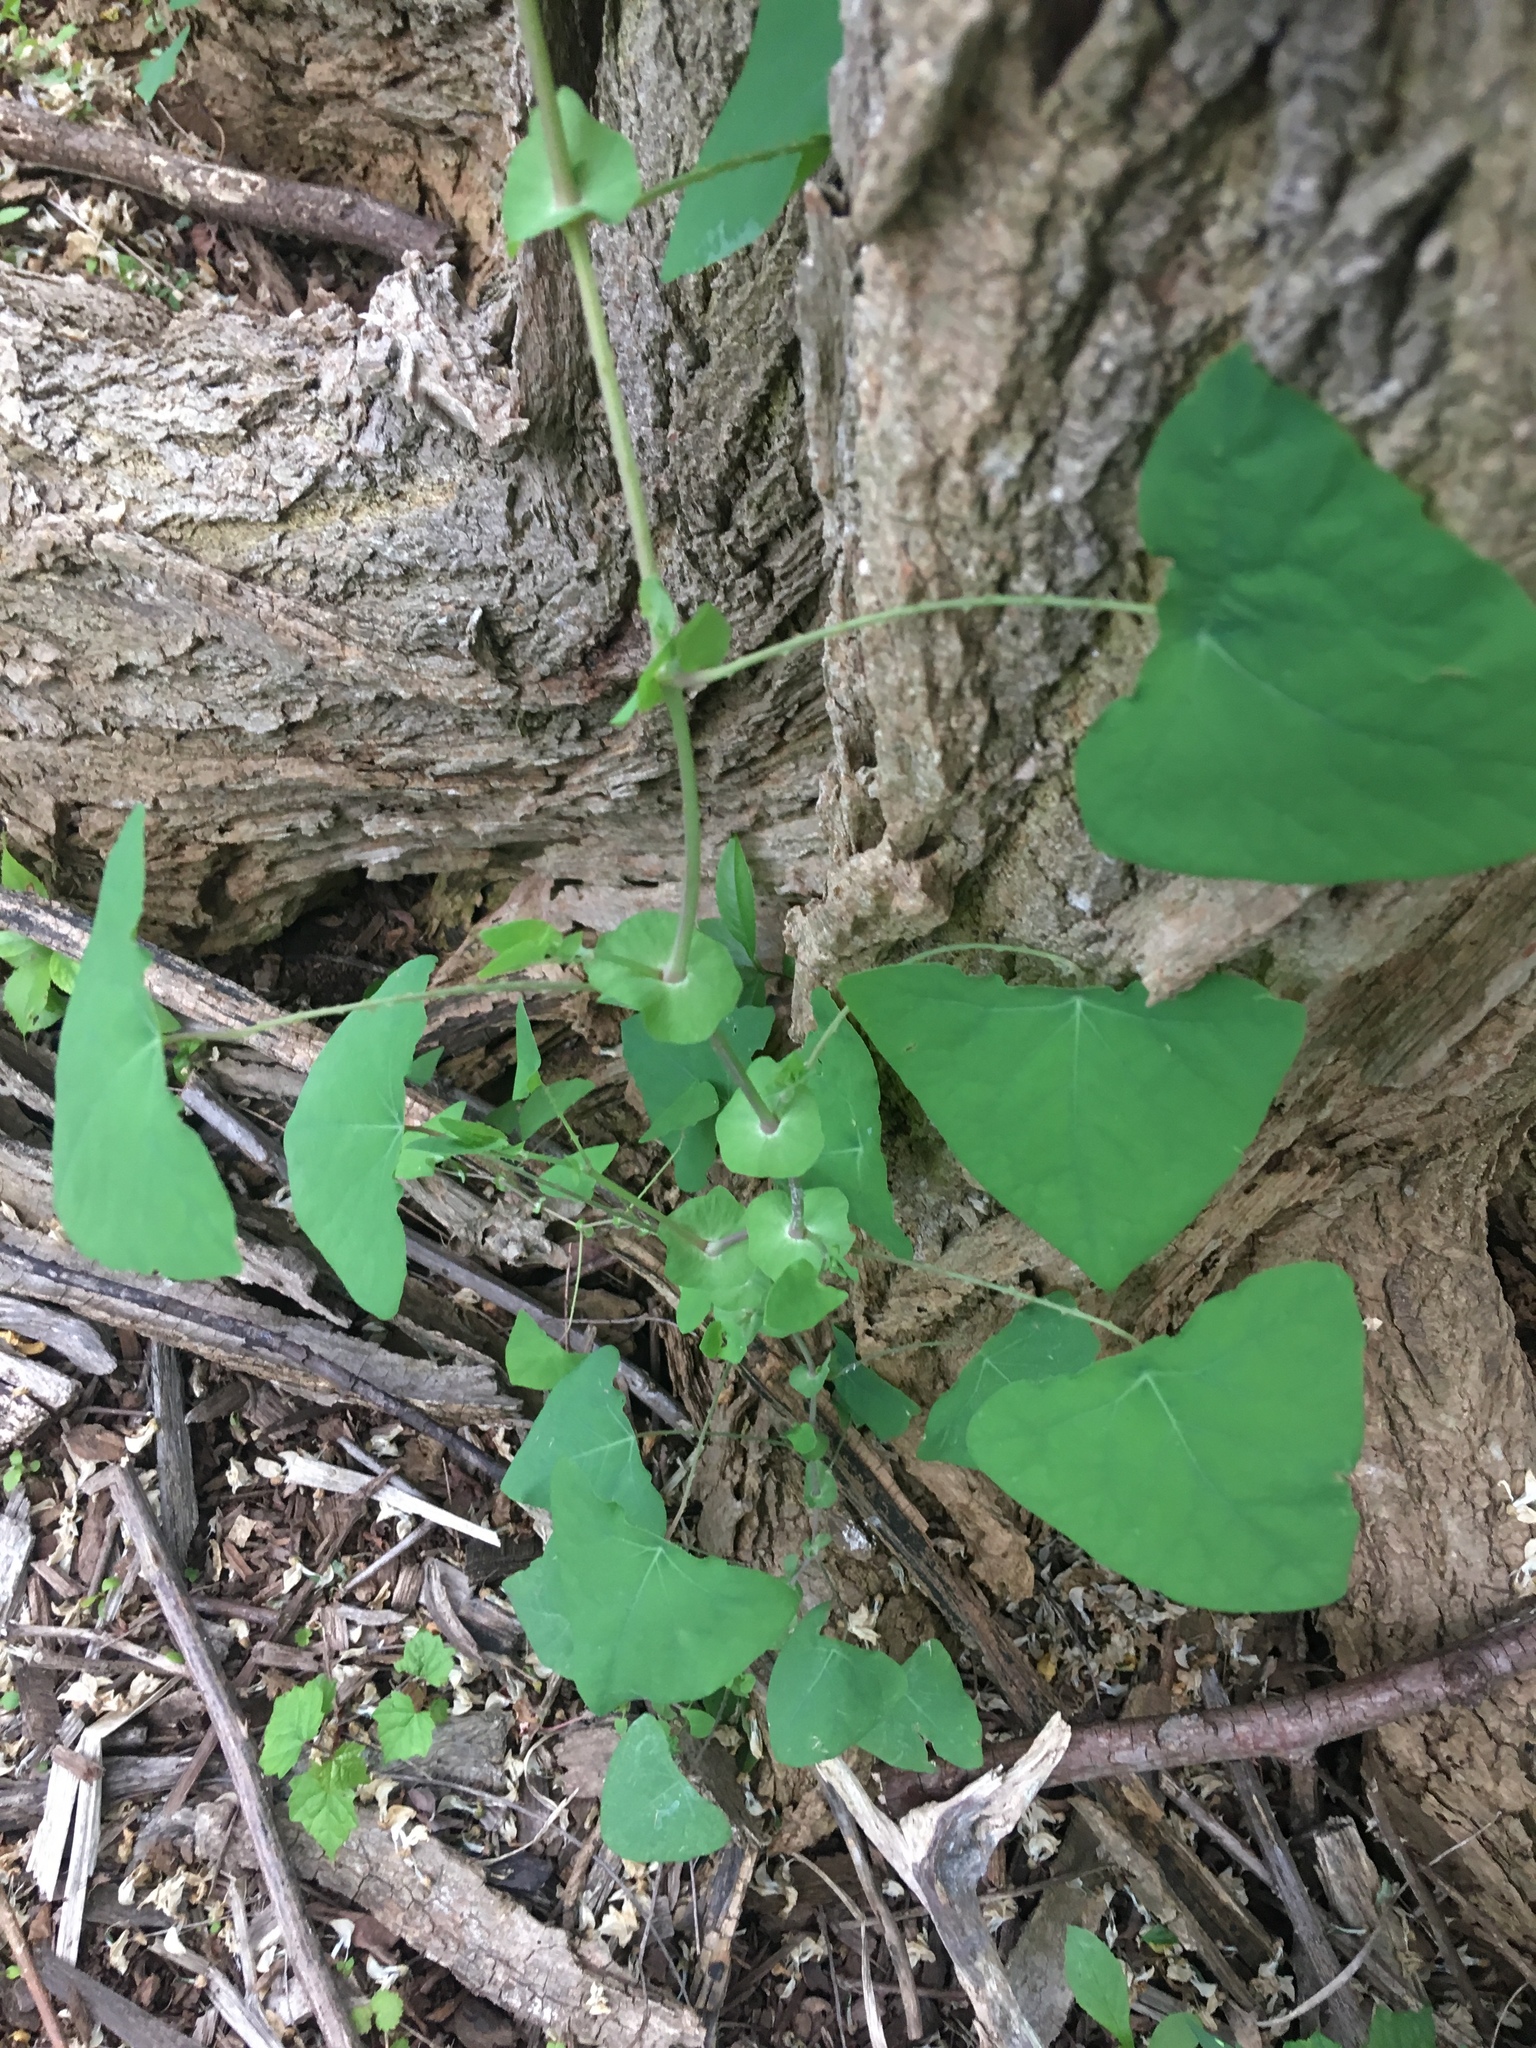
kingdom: Plantae
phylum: Tracheophyta
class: Magnoliopsida
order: Caryophyllales
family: Polygonaceae
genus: Persicaria
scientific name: Persicaria perfoliata
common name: Asiatic tearthumb
